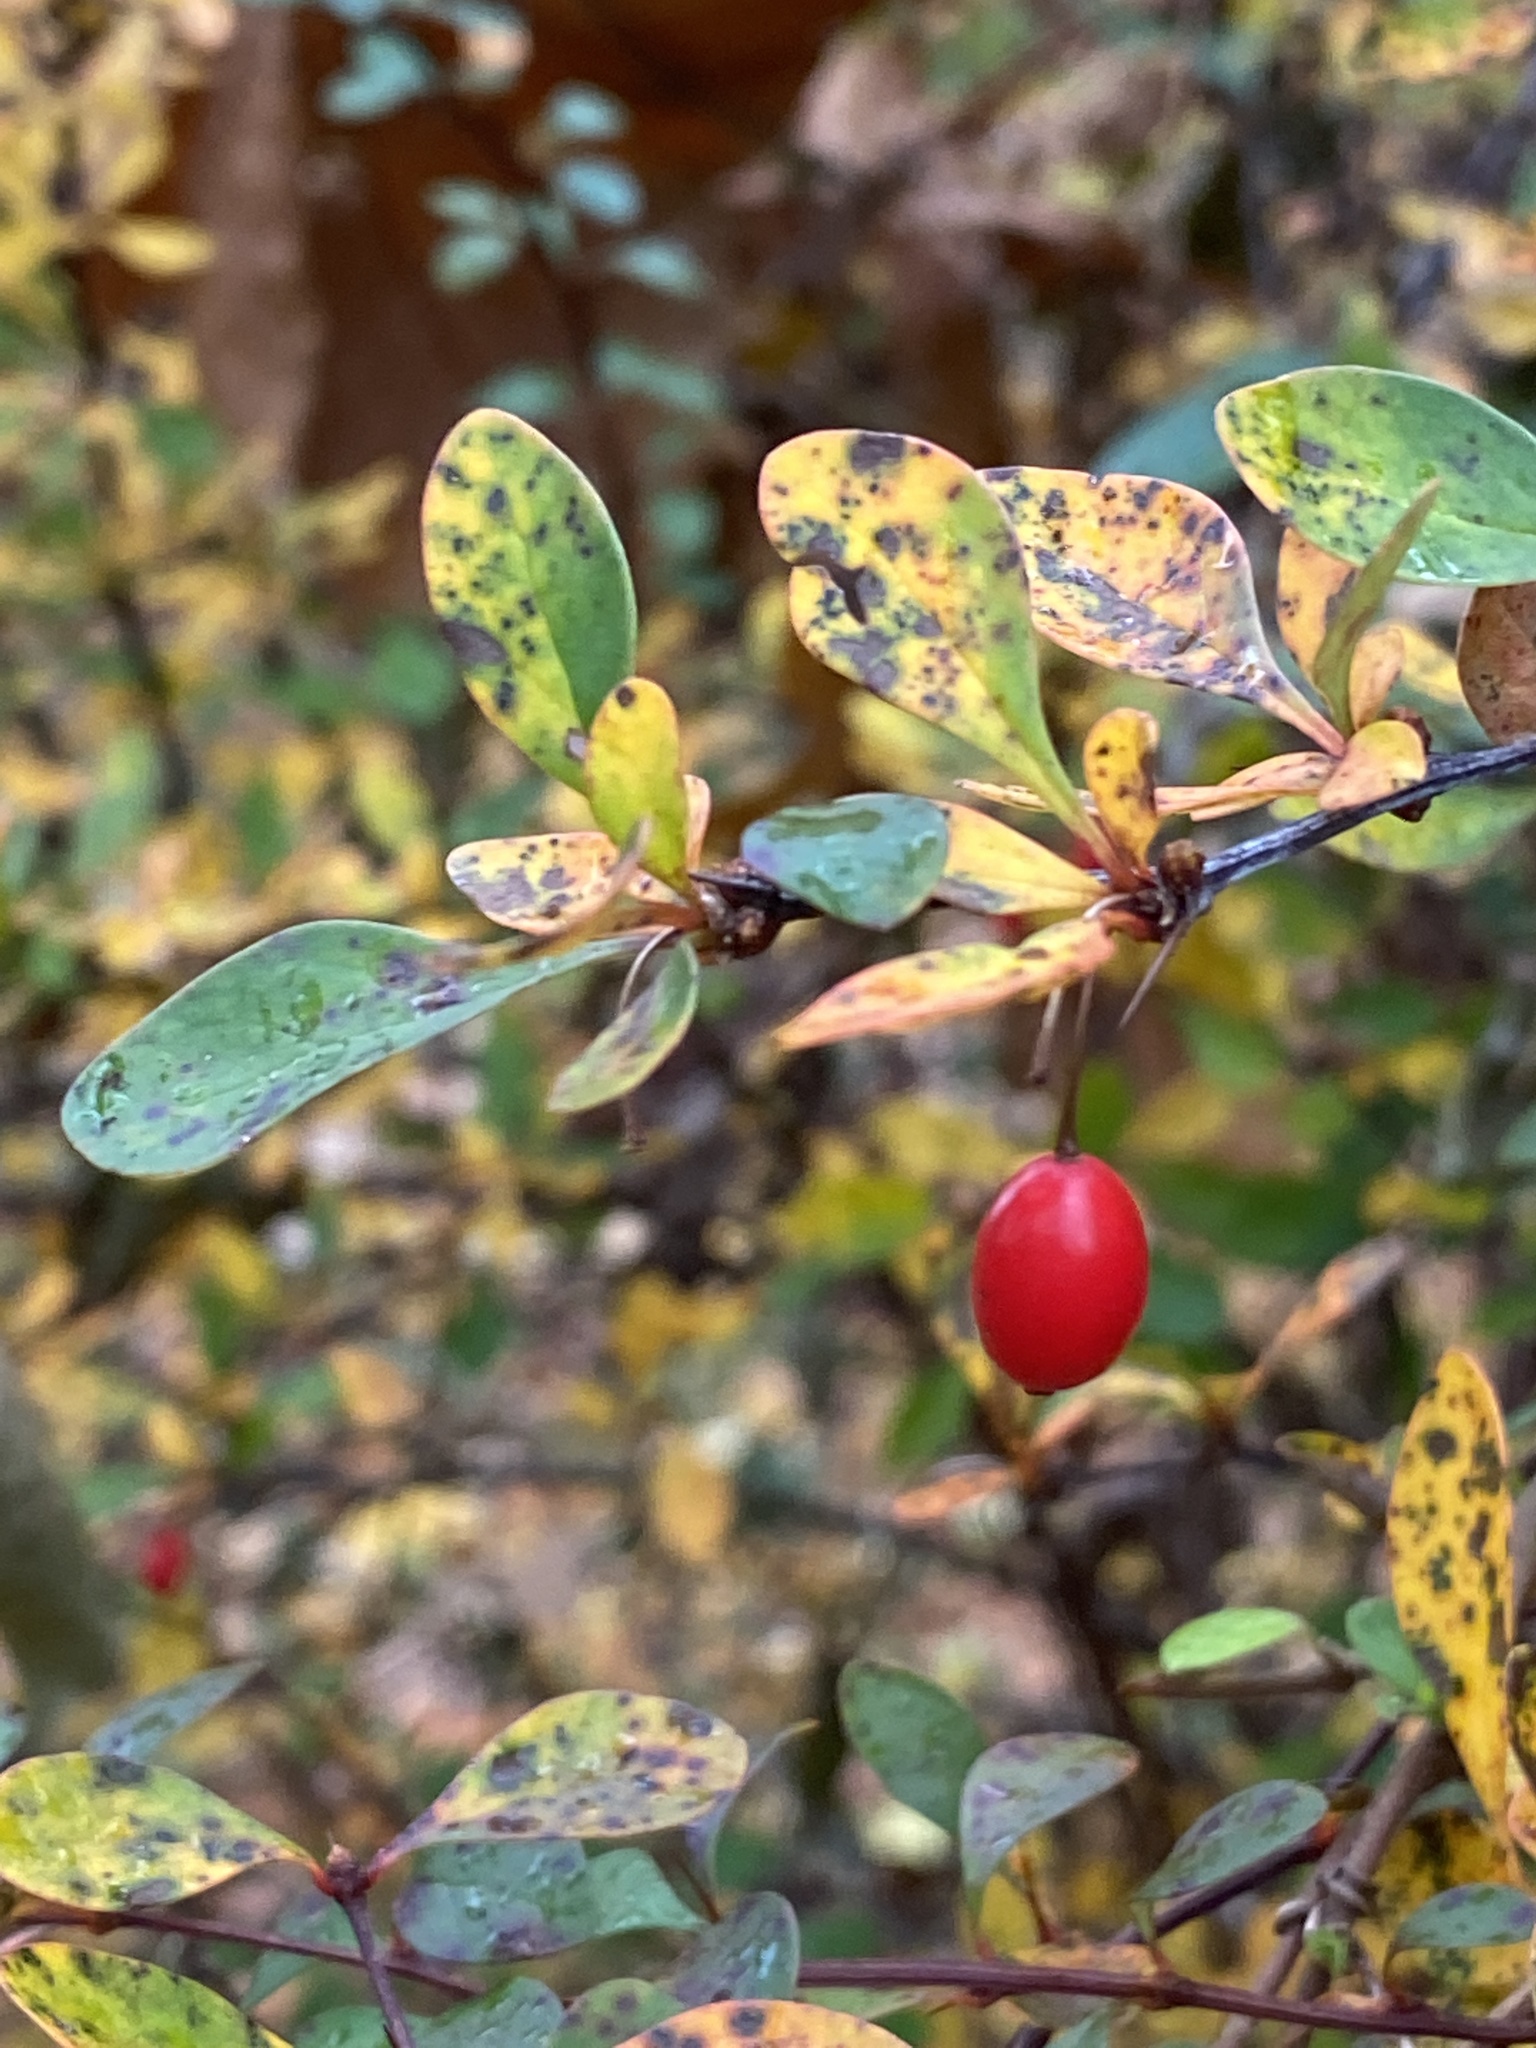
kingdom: Plantae
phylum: Tracheophyta
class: Magnoliopsida
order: Ranunculales
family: Berberidaceae
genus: Berberis
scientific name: Berberis thunbergii
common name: Japanese barberry
